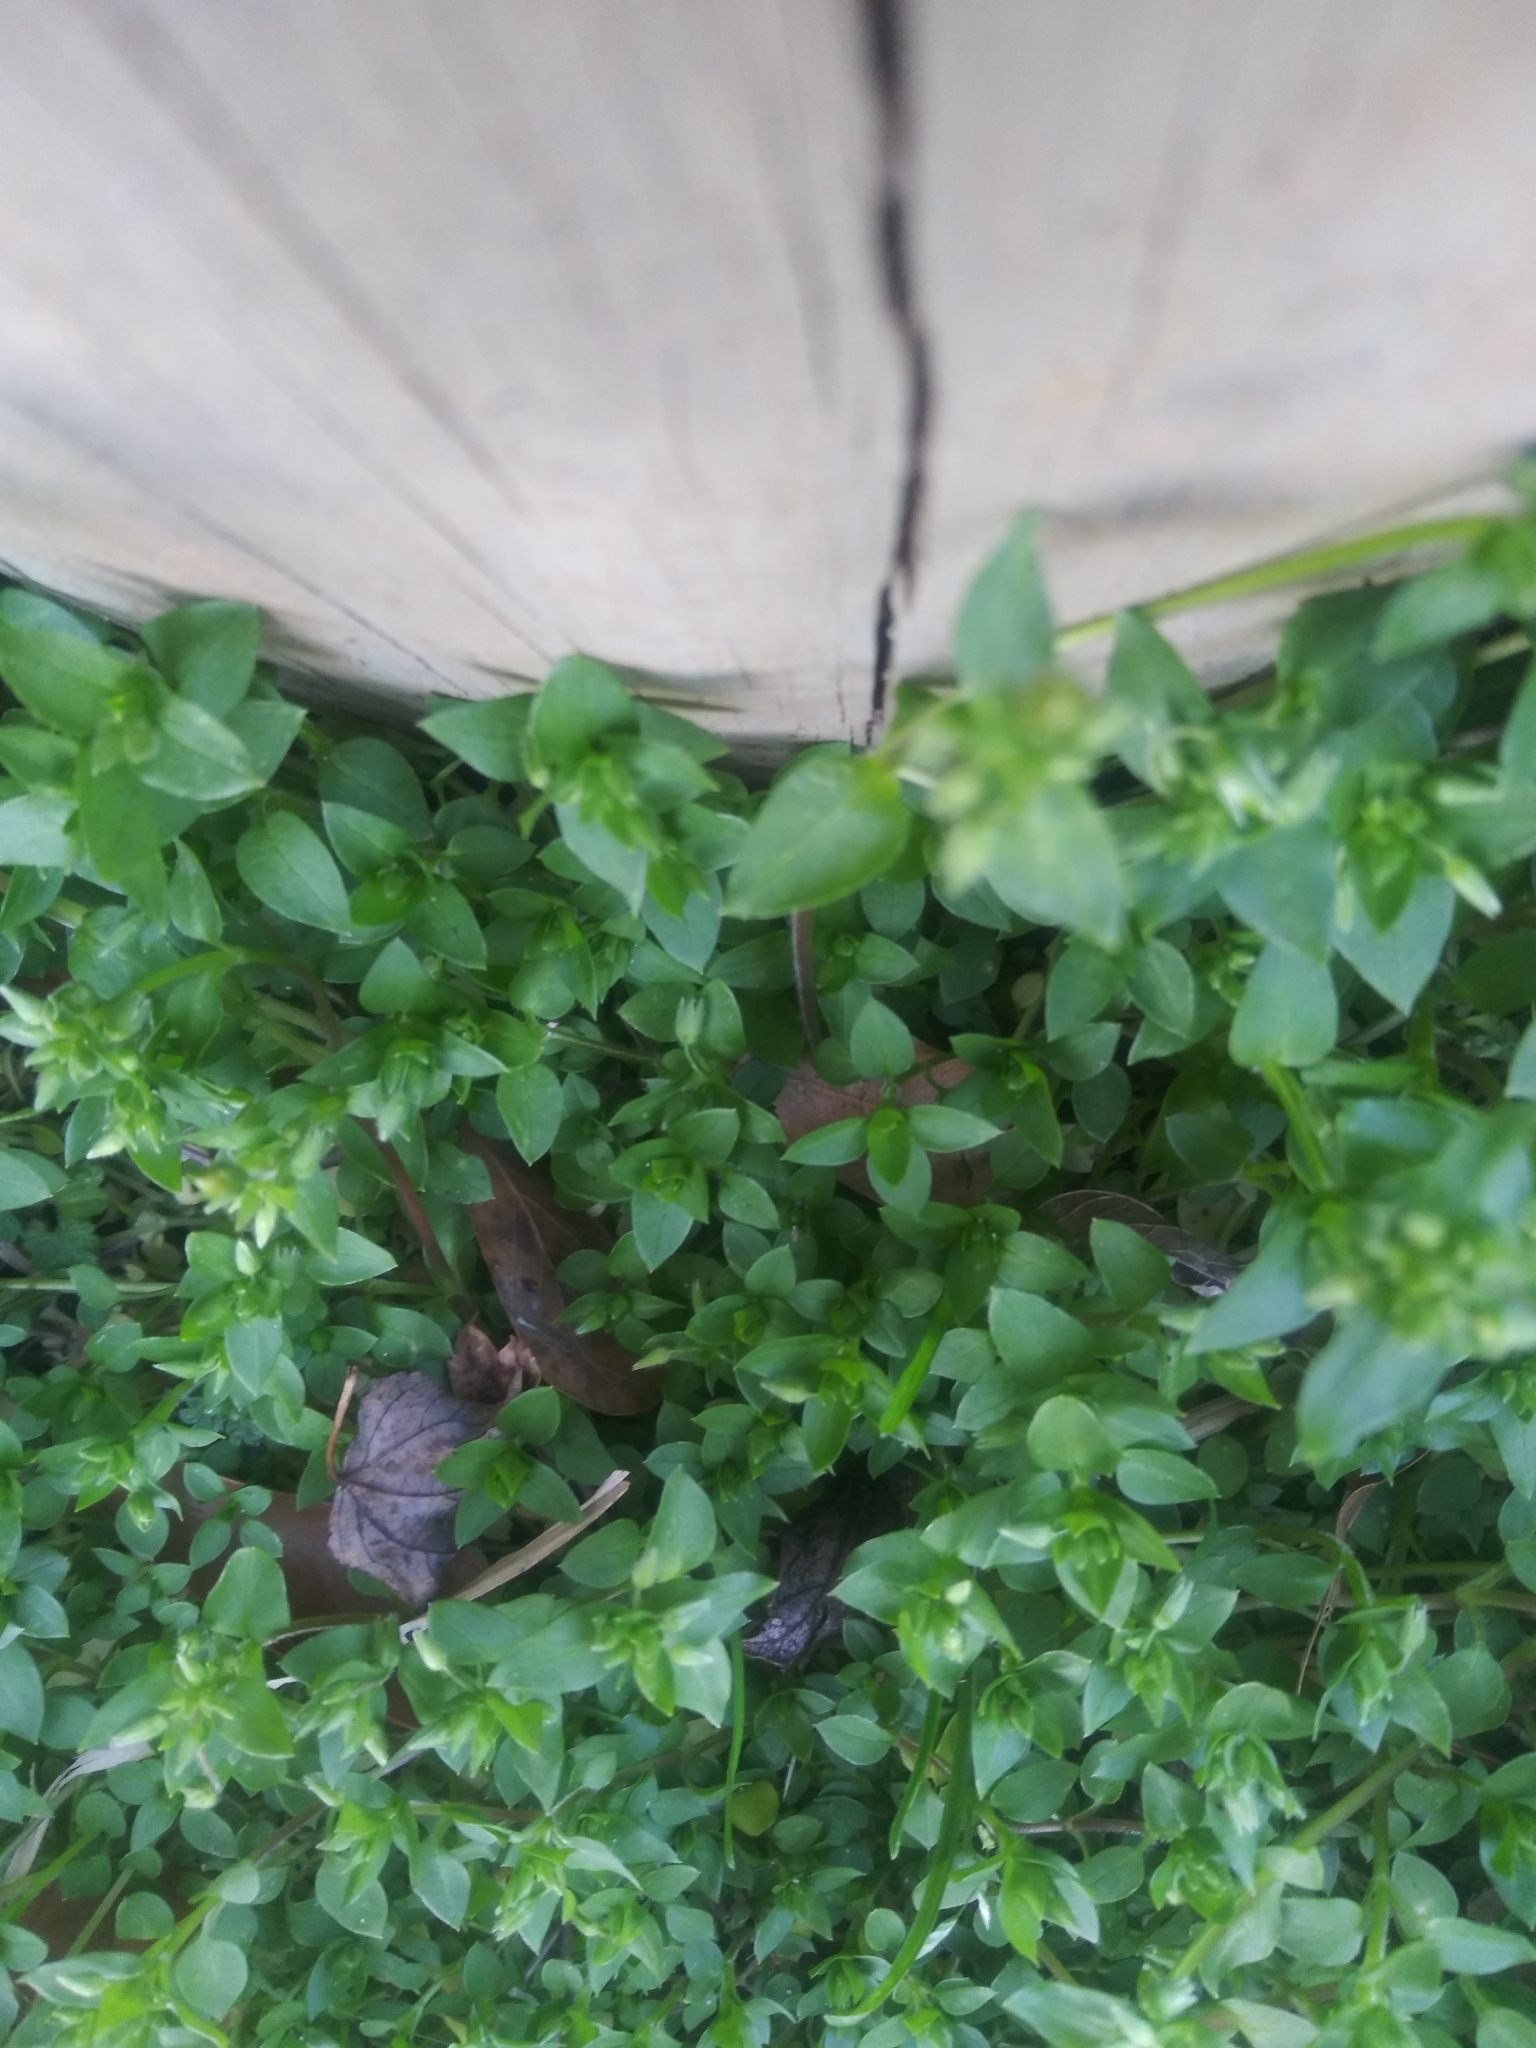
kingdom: Plantae
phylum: Tracheophyta
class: Magnoliopsida
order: Caryophyllales
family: Caryophyllaceae
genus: Stellaria
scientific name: Stellaria media
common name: Common chickweed
